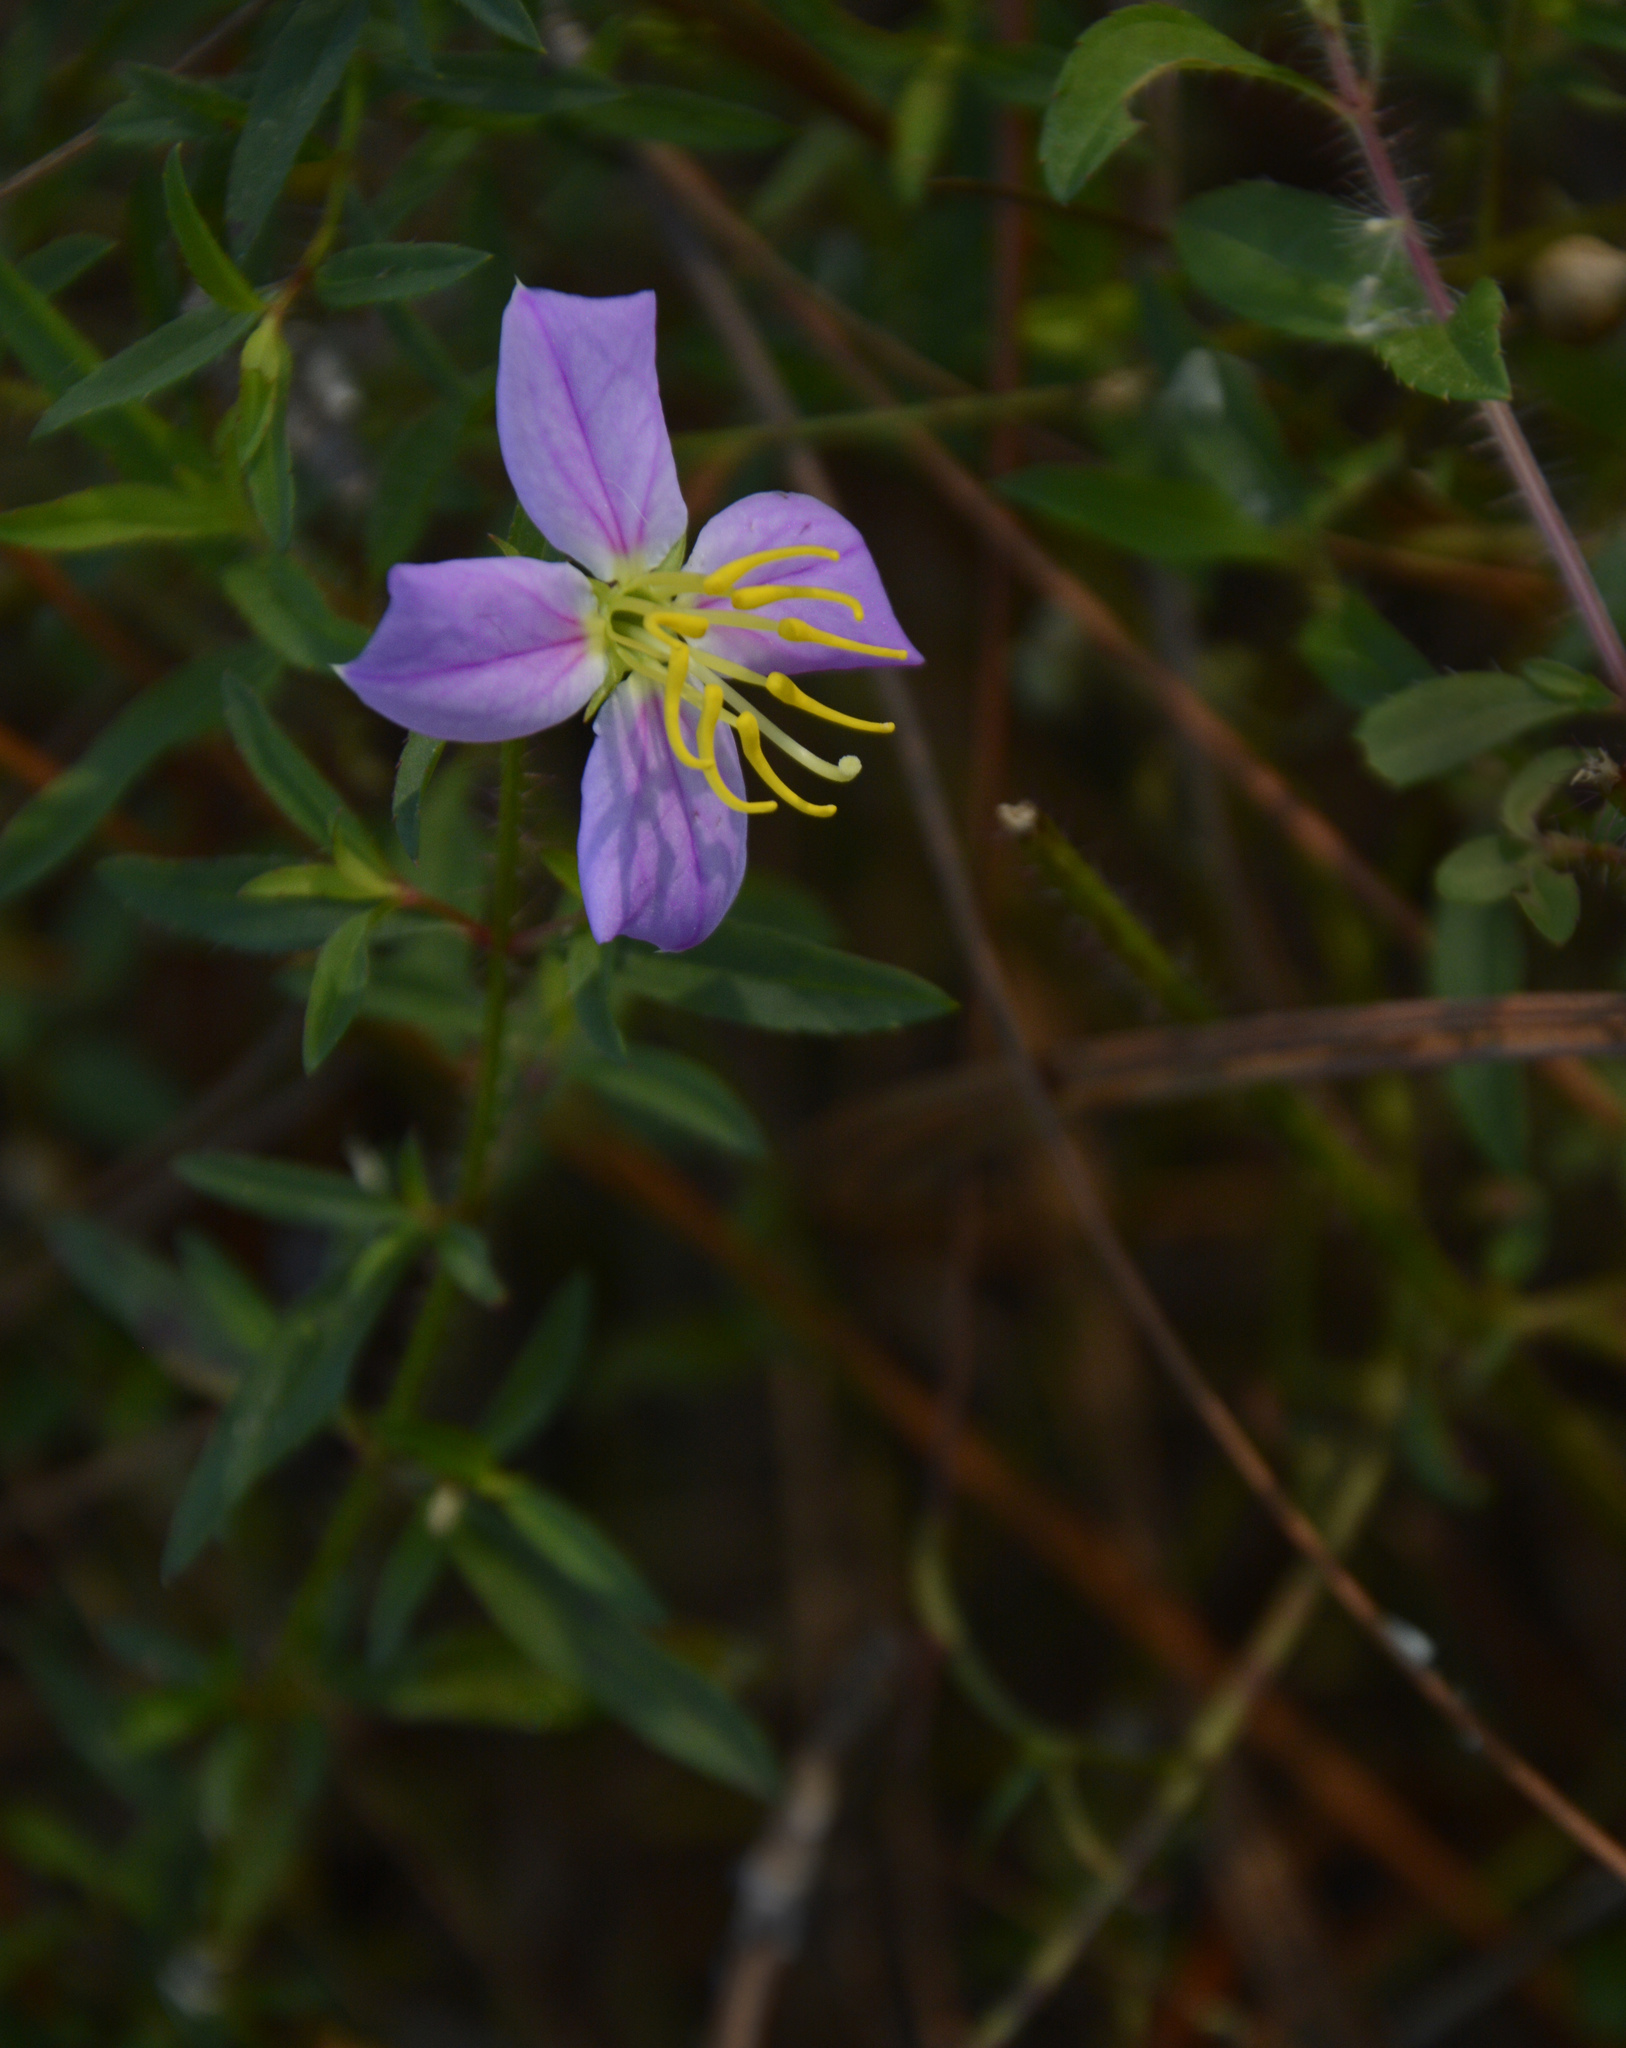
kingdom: Plantae
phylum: Tracheophyta
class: Magnoliopsida
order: Myrtales
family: Melastomataceae
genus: Rhexia
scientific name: Rhexia mariana
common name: Dull meadow-pitcher
